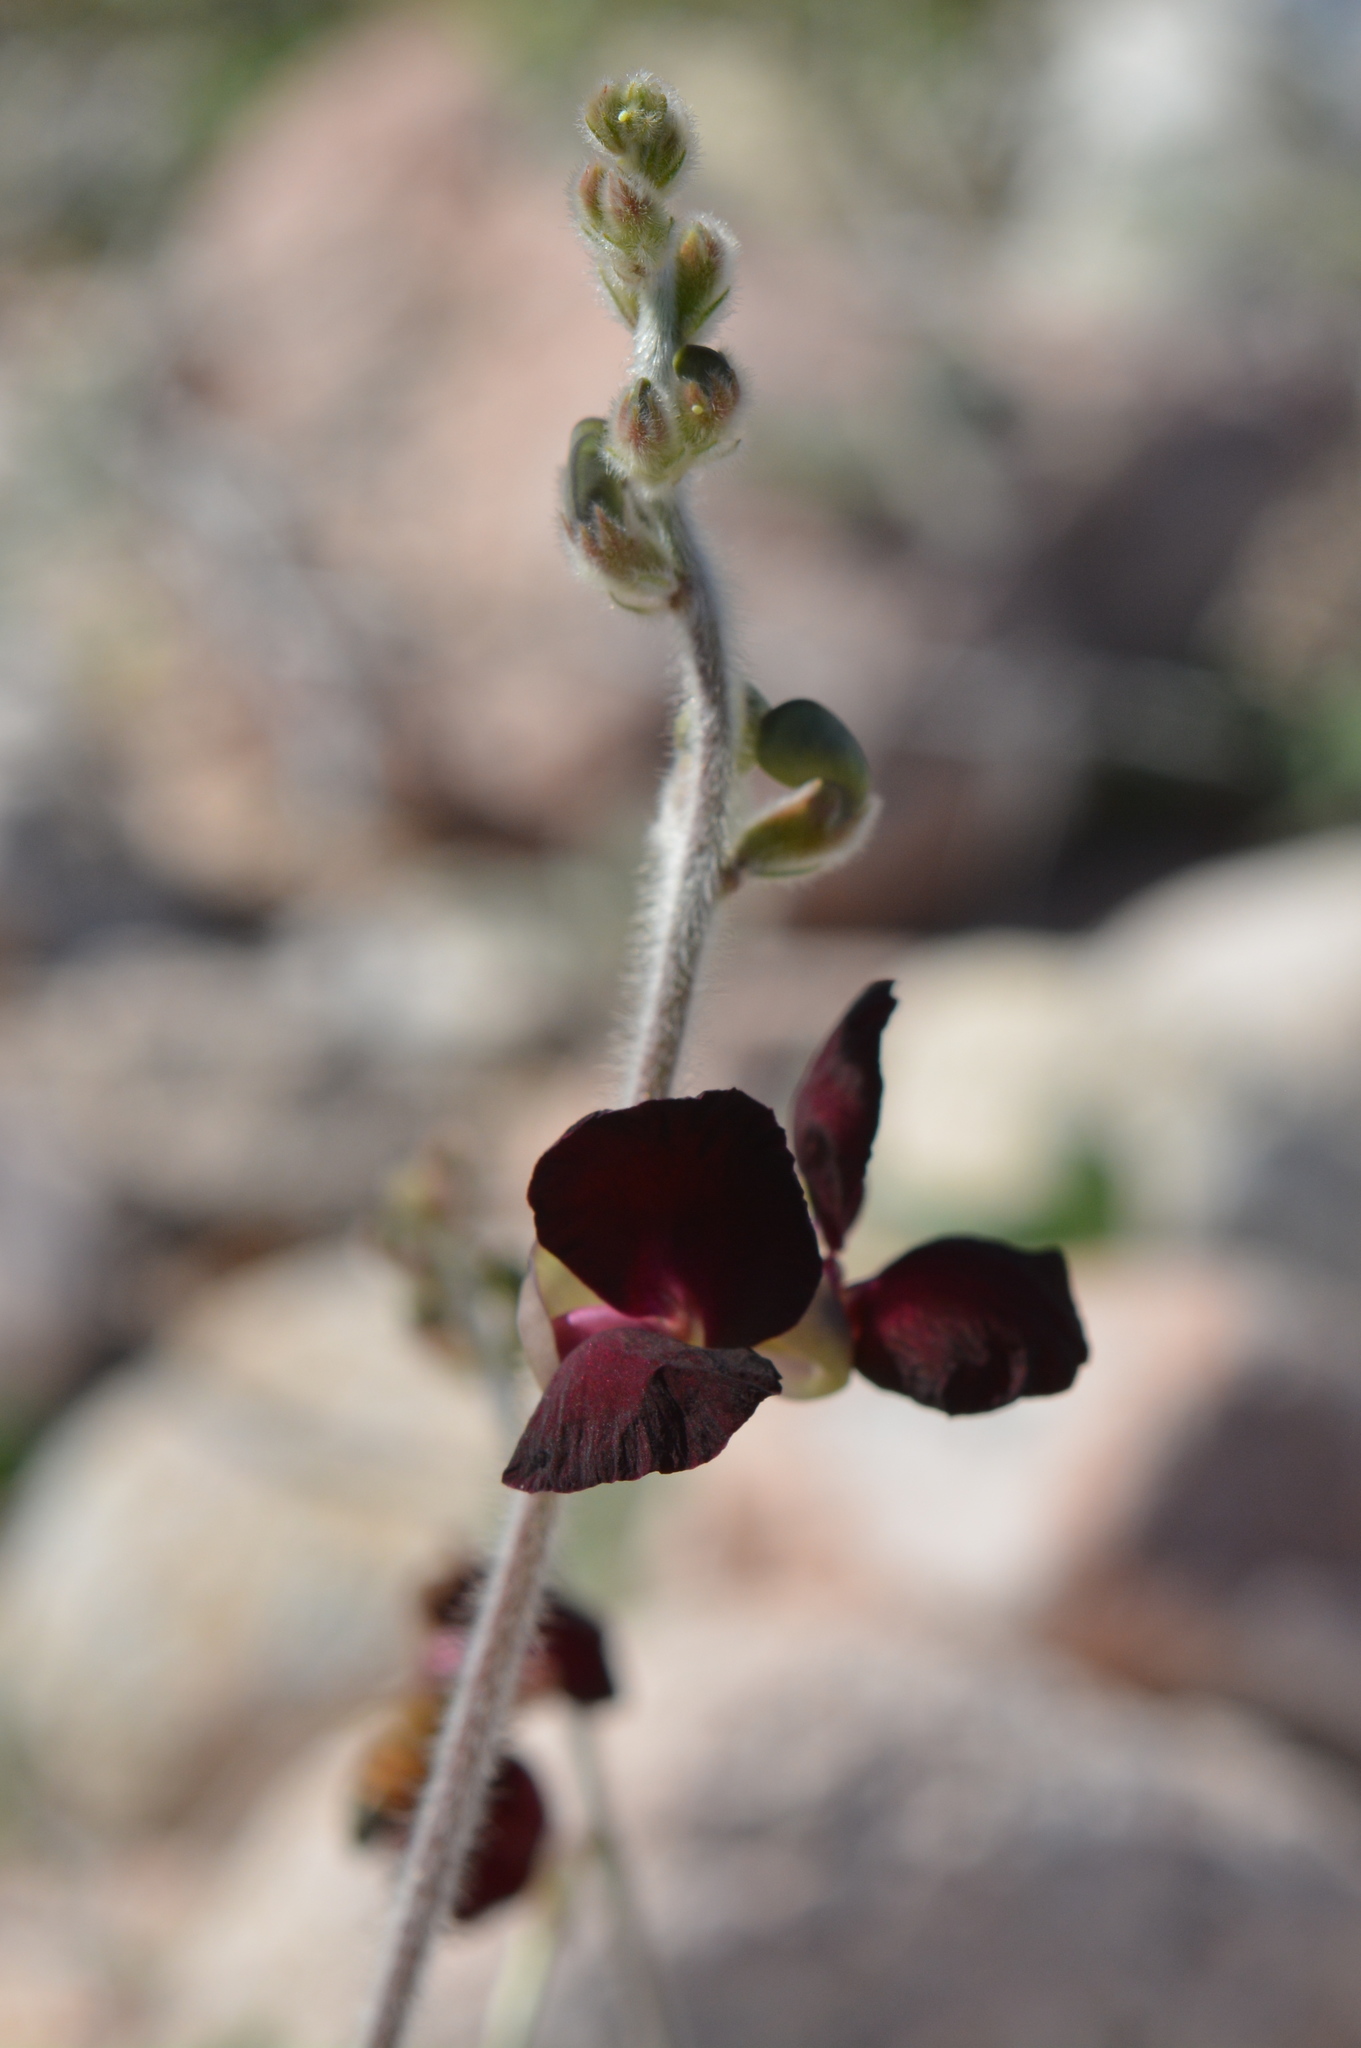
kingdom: Plantae
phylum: Tracheophyta
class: Magnoliopsida
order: Fabales
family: Fabaceae
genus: Macroptilium
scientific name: Macroptilium atropurpureum
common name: Purple bushbean
